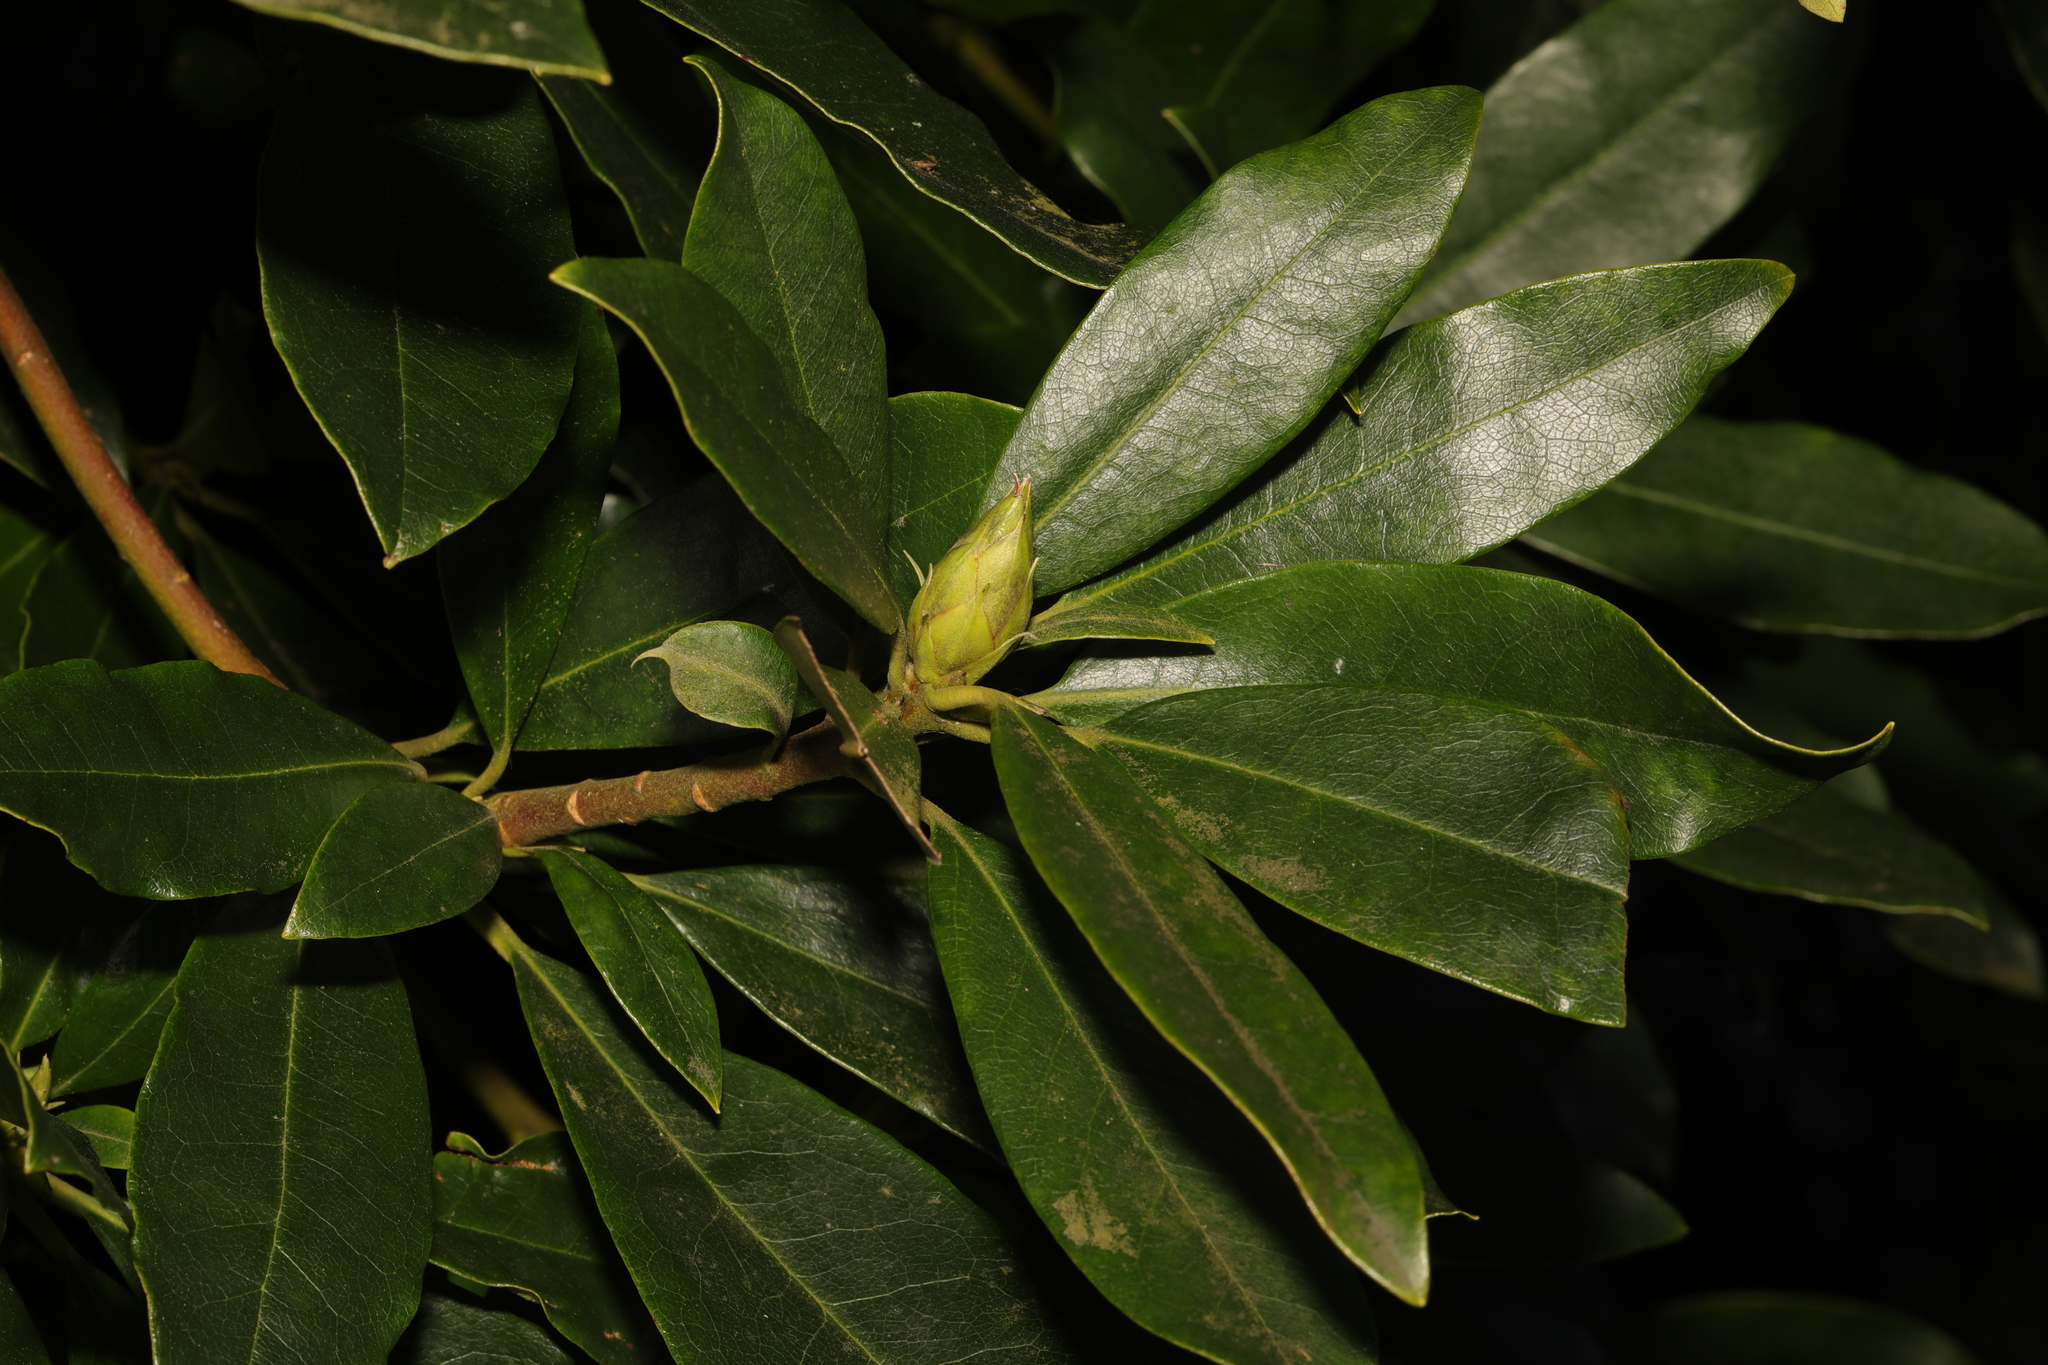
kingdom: Plantae
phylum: Tracheophyta
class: Magnoliopsida
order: Ericales
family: Ericaceae
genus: Rhododendron
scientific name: Rhododendron ponticum
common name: Rhododendron
